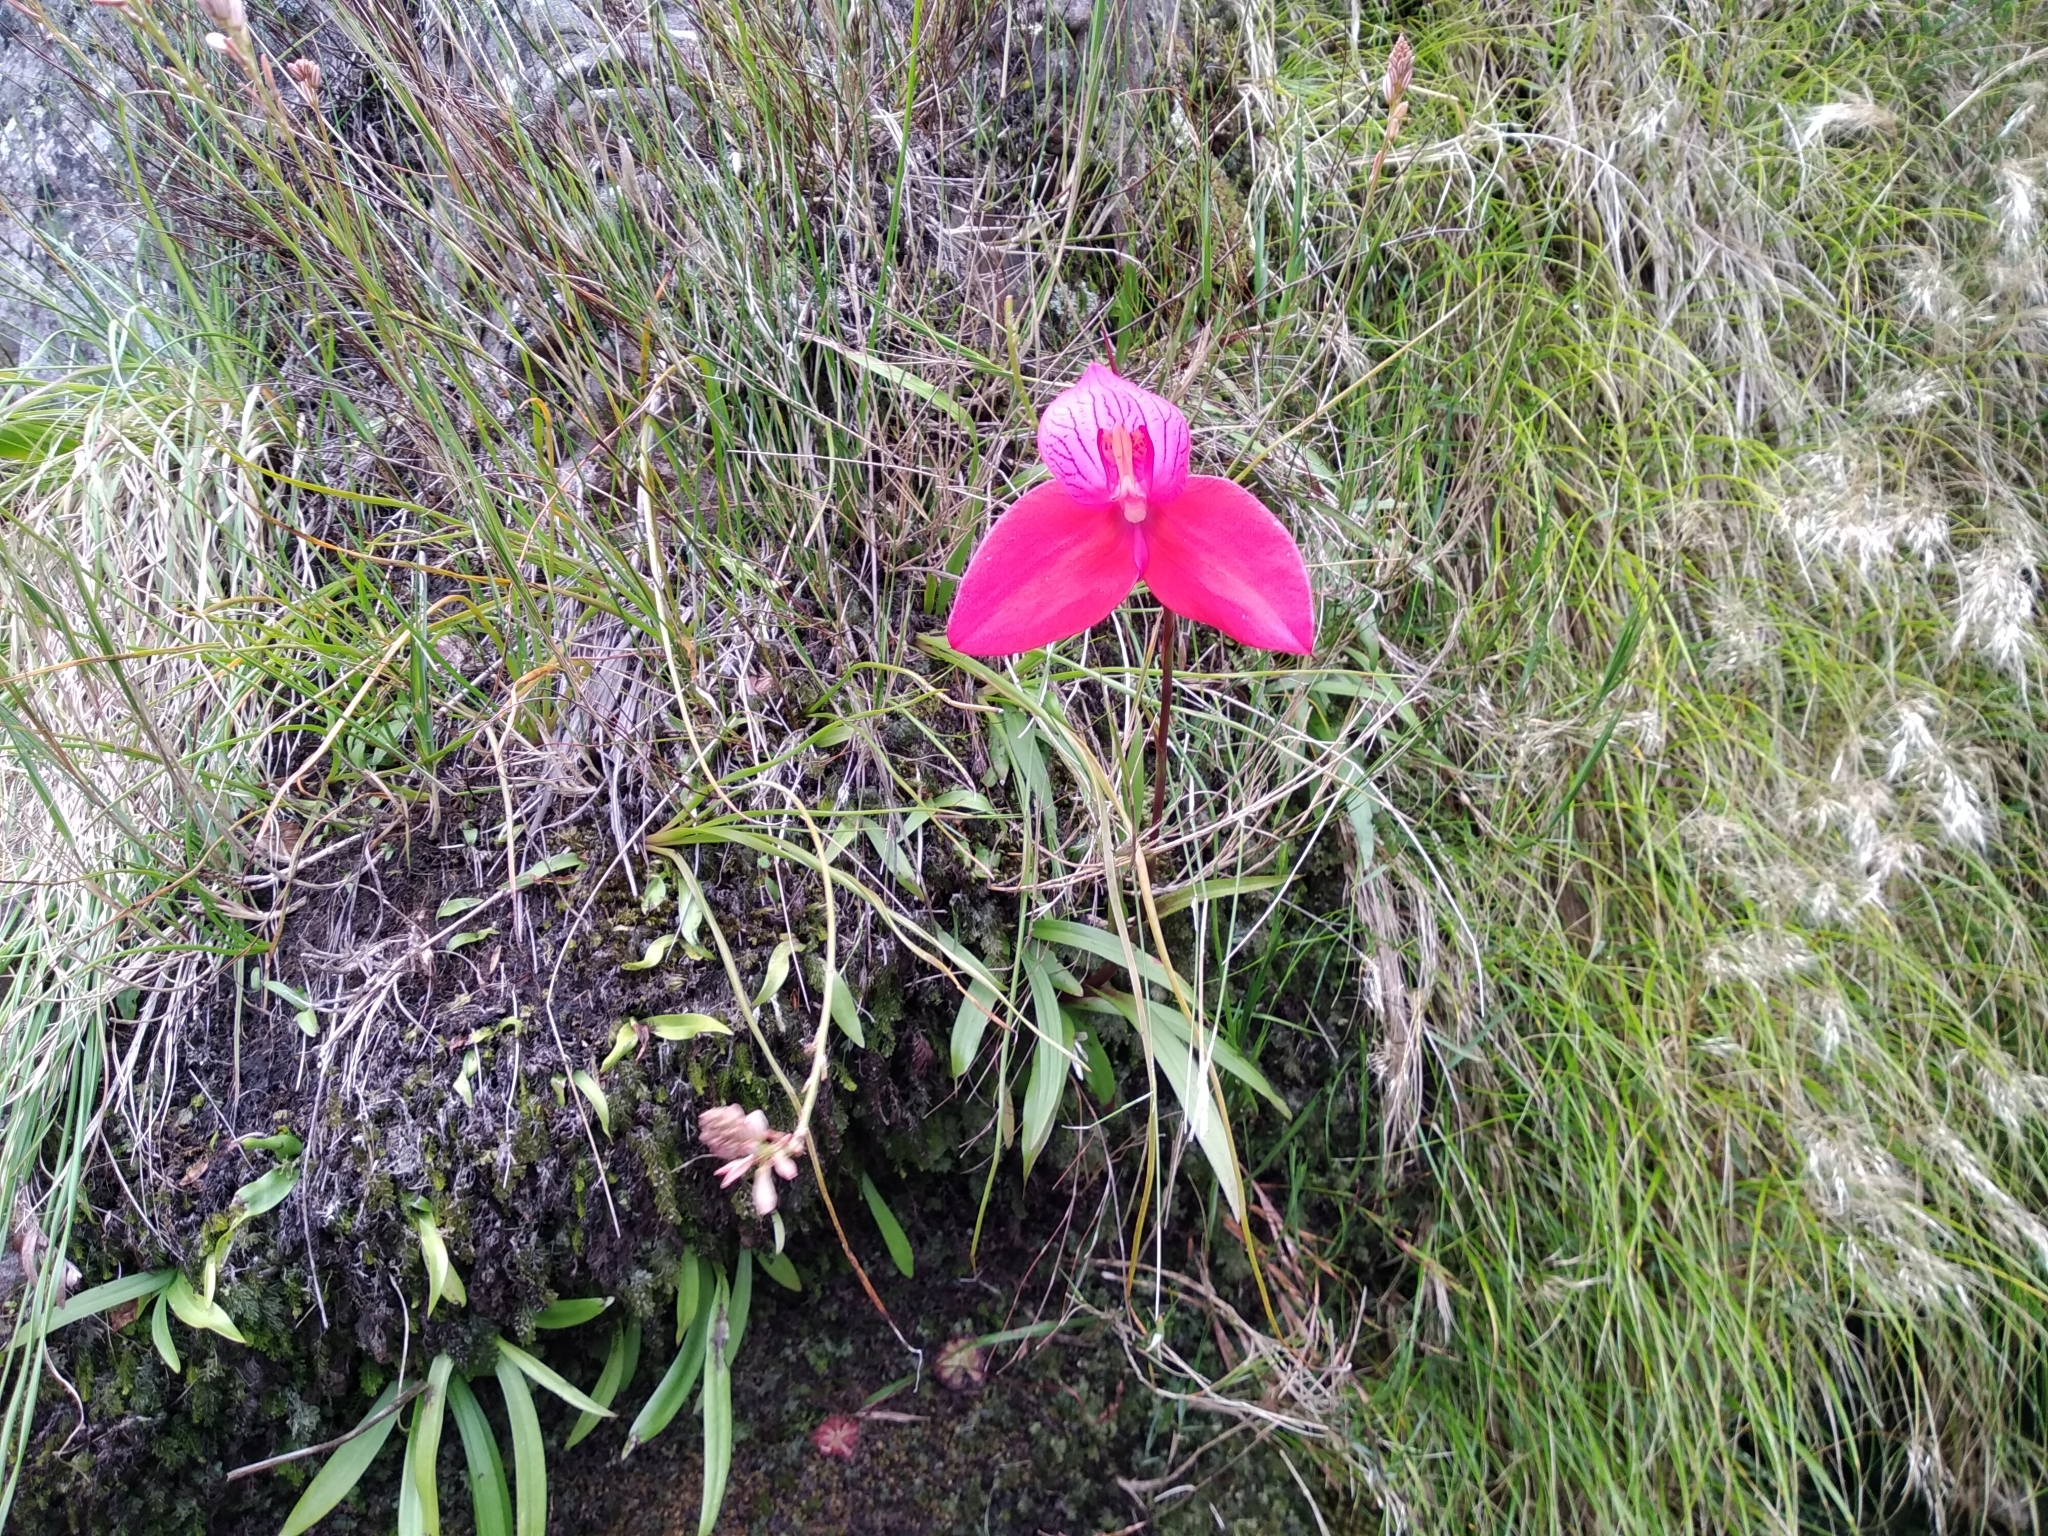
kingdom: Plantae
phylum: Tracheophyta
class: Liliopsida
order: Asparagales
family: Orchidaceae
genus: Disa
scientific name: Disa uniflora
